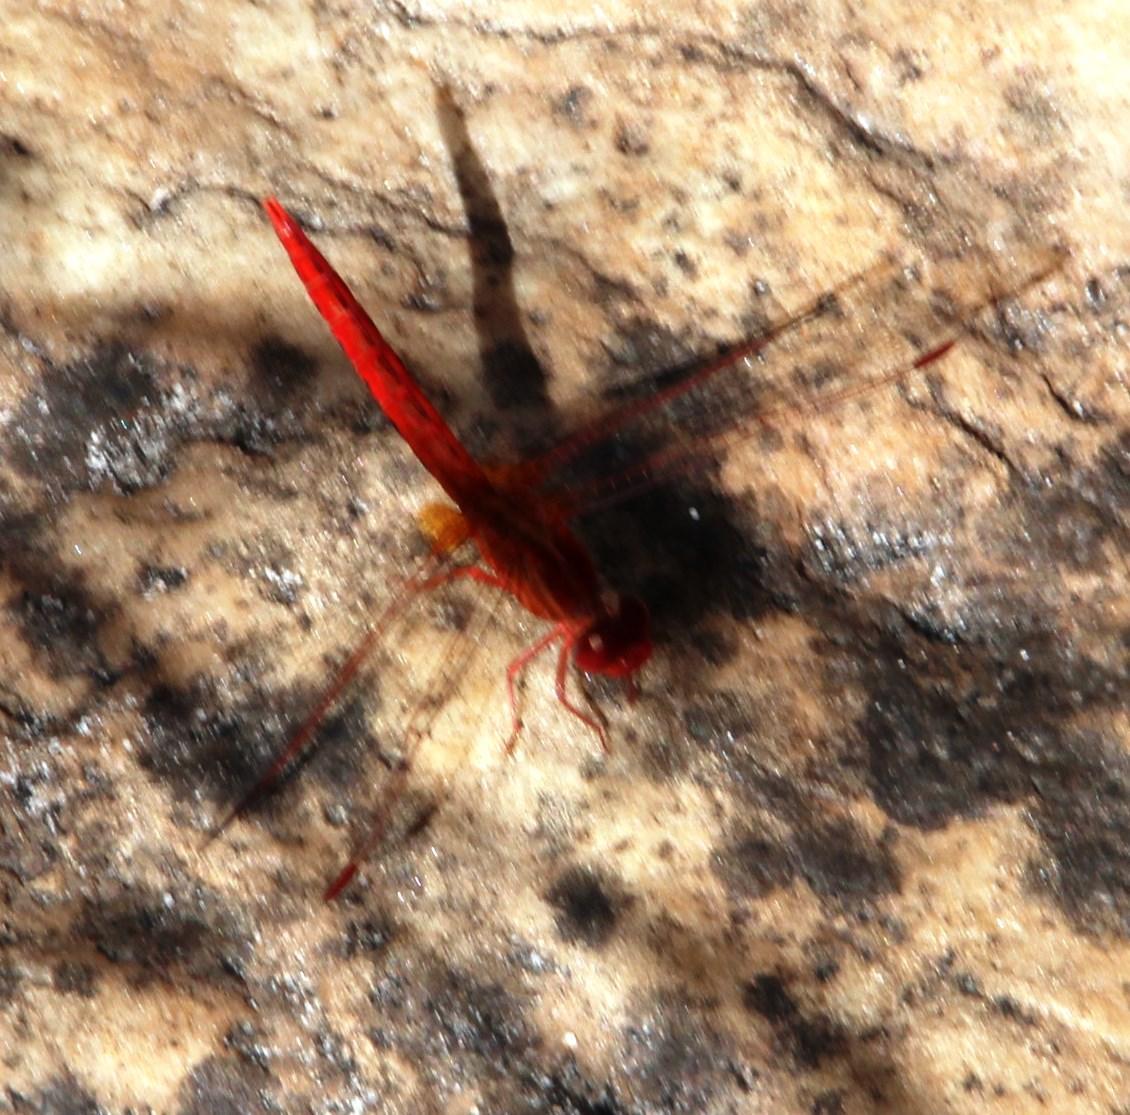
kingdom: Animalia
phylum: Arthropoda
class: Insecta
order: Odonata
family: Libellulidae
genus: Crocothemis
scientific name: Crocothemis sanguinolenta
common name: Little scarlet
